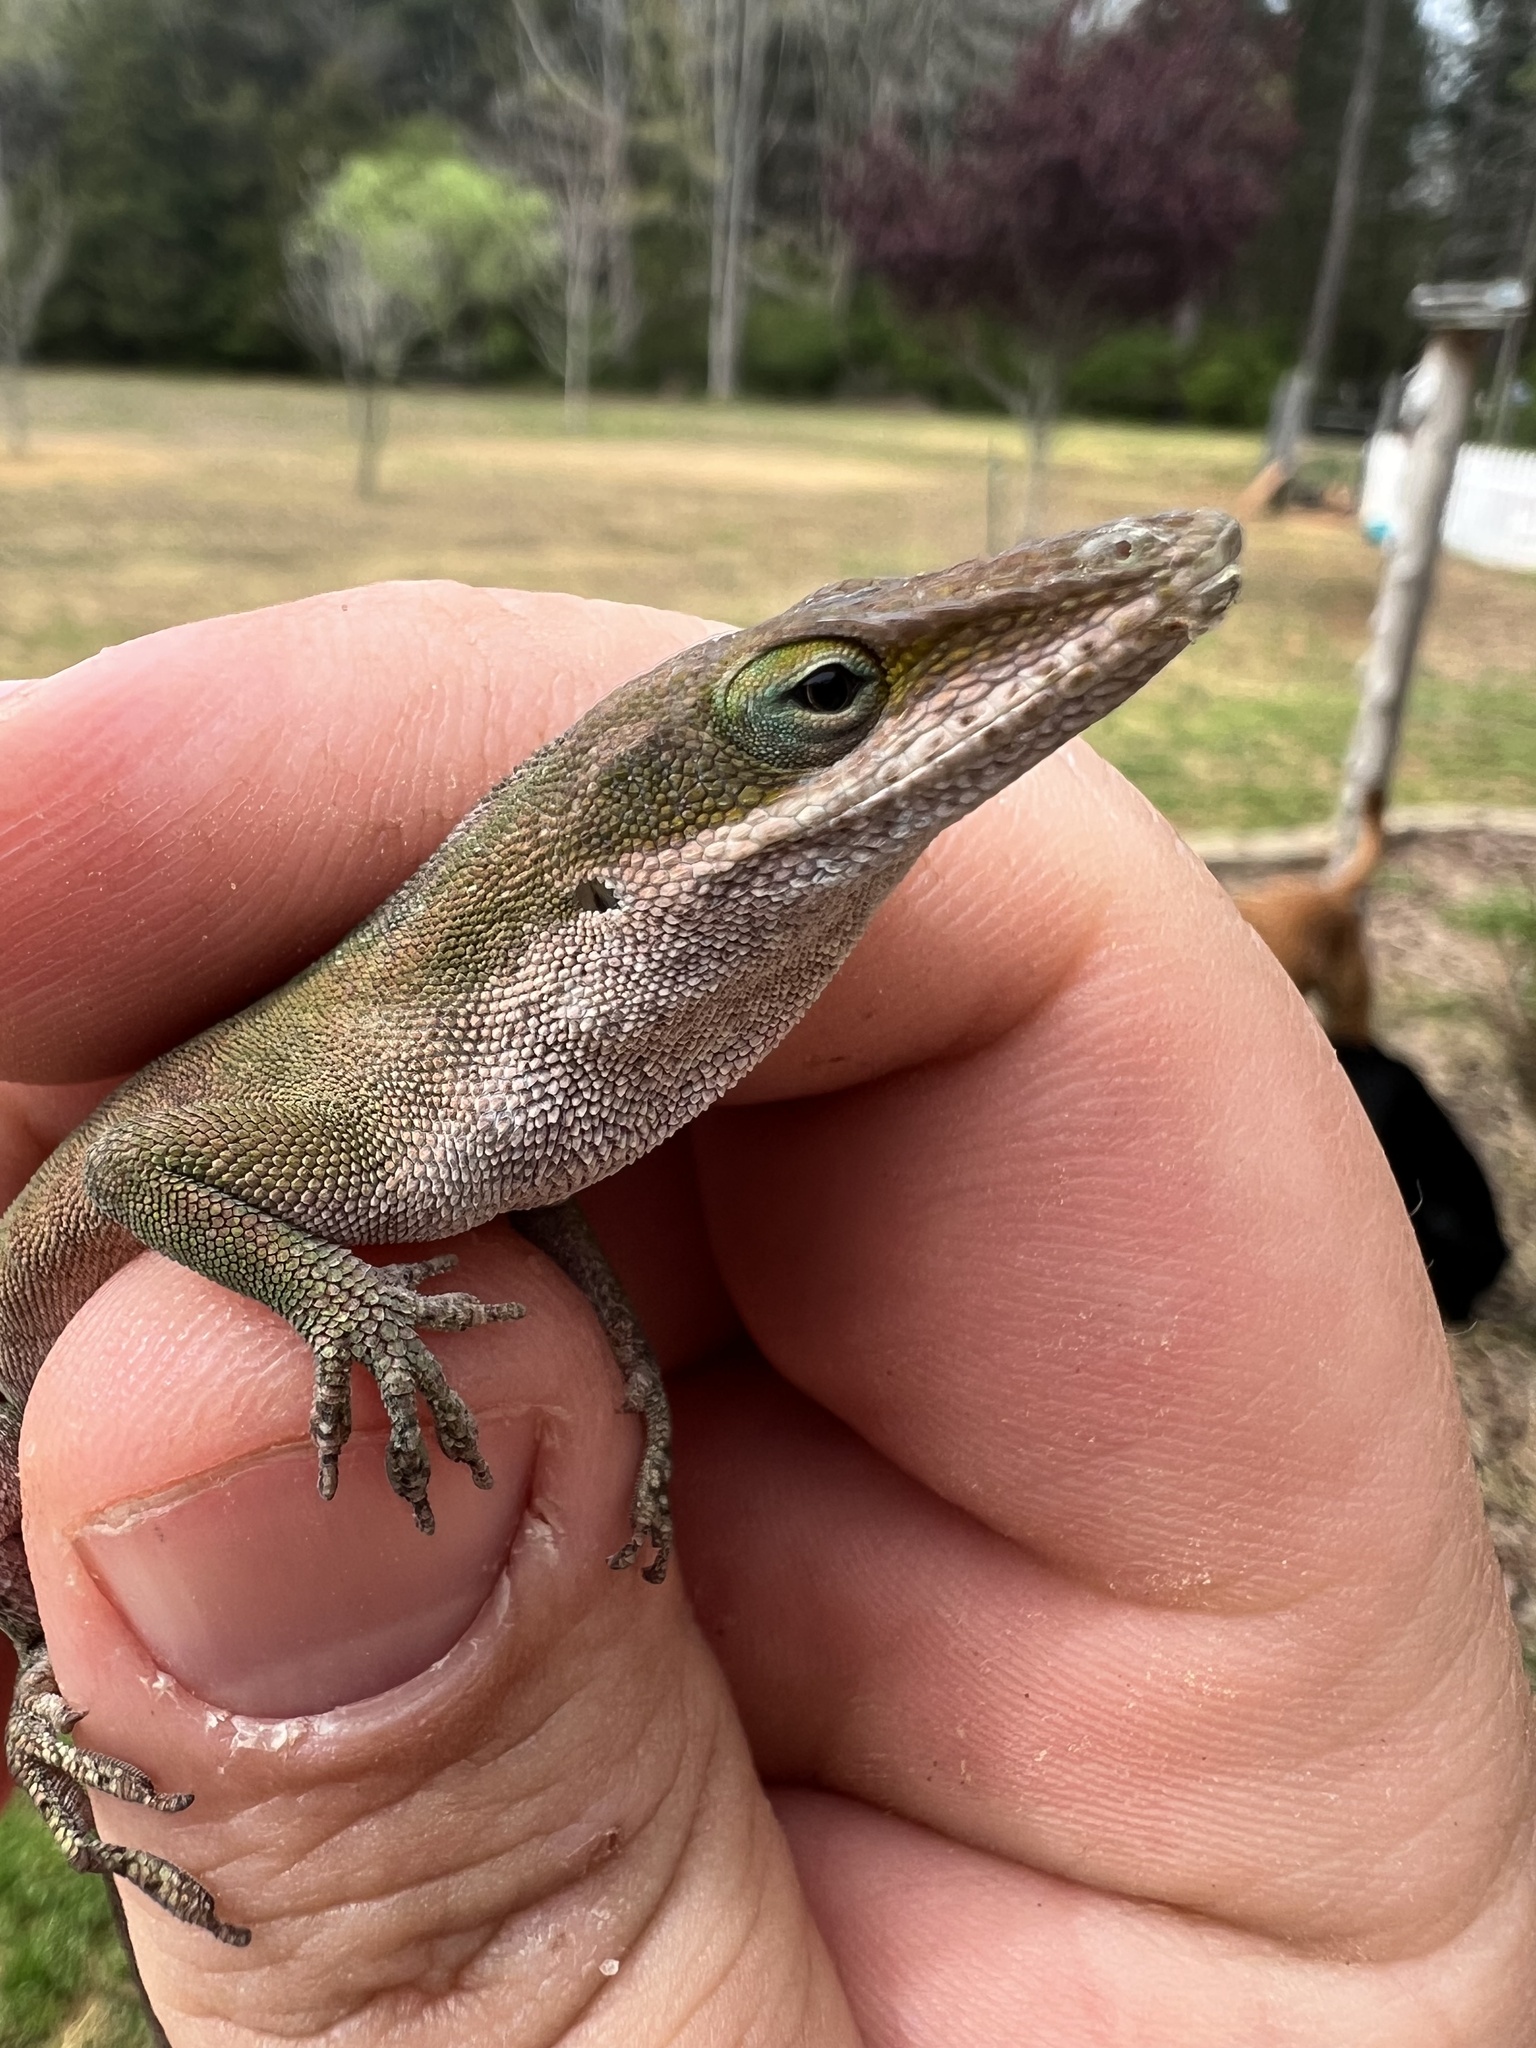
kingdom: Animalia
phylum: Chordata
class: Squamata
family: Dactyloidae
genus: Anolis
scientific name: Anolis carolinensis
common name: Green anole
